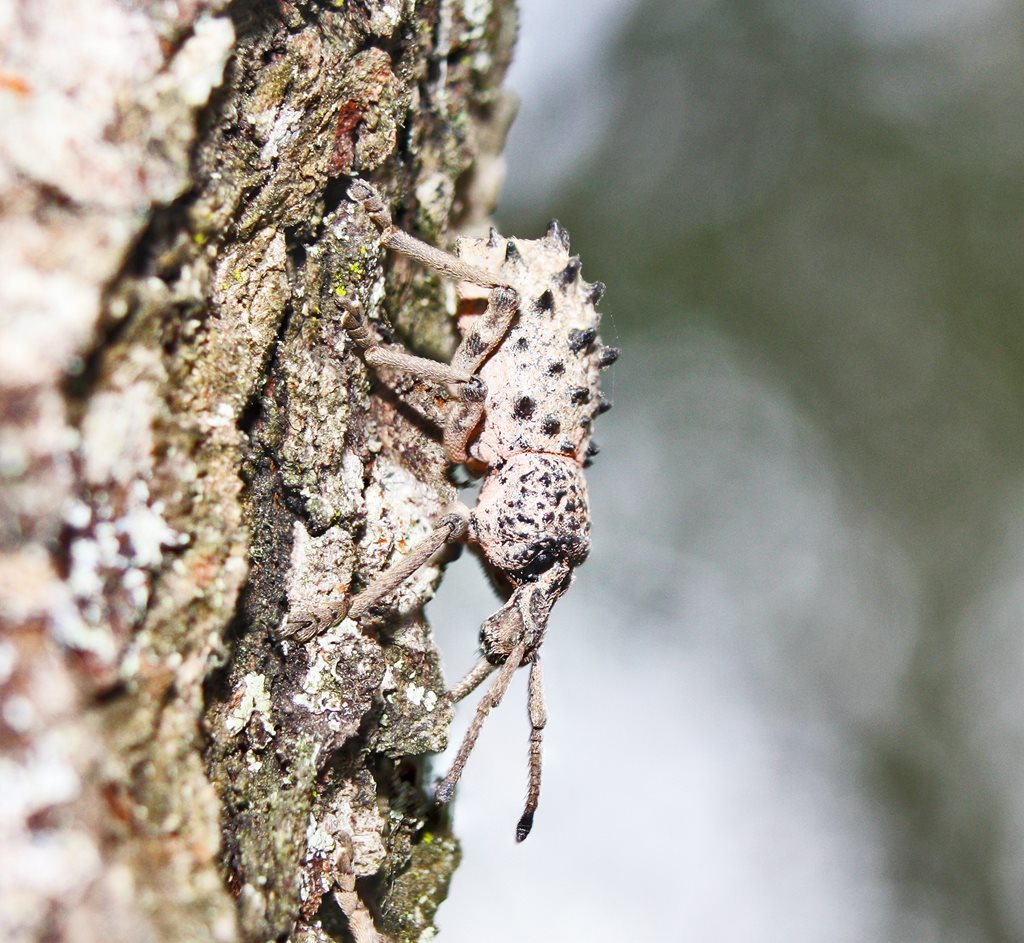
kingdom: Animalia
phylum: Arthropoda
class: Insecta
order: Coleoptera
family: Curculionidae
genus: Leptopius
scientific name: Leptopius baileyi
